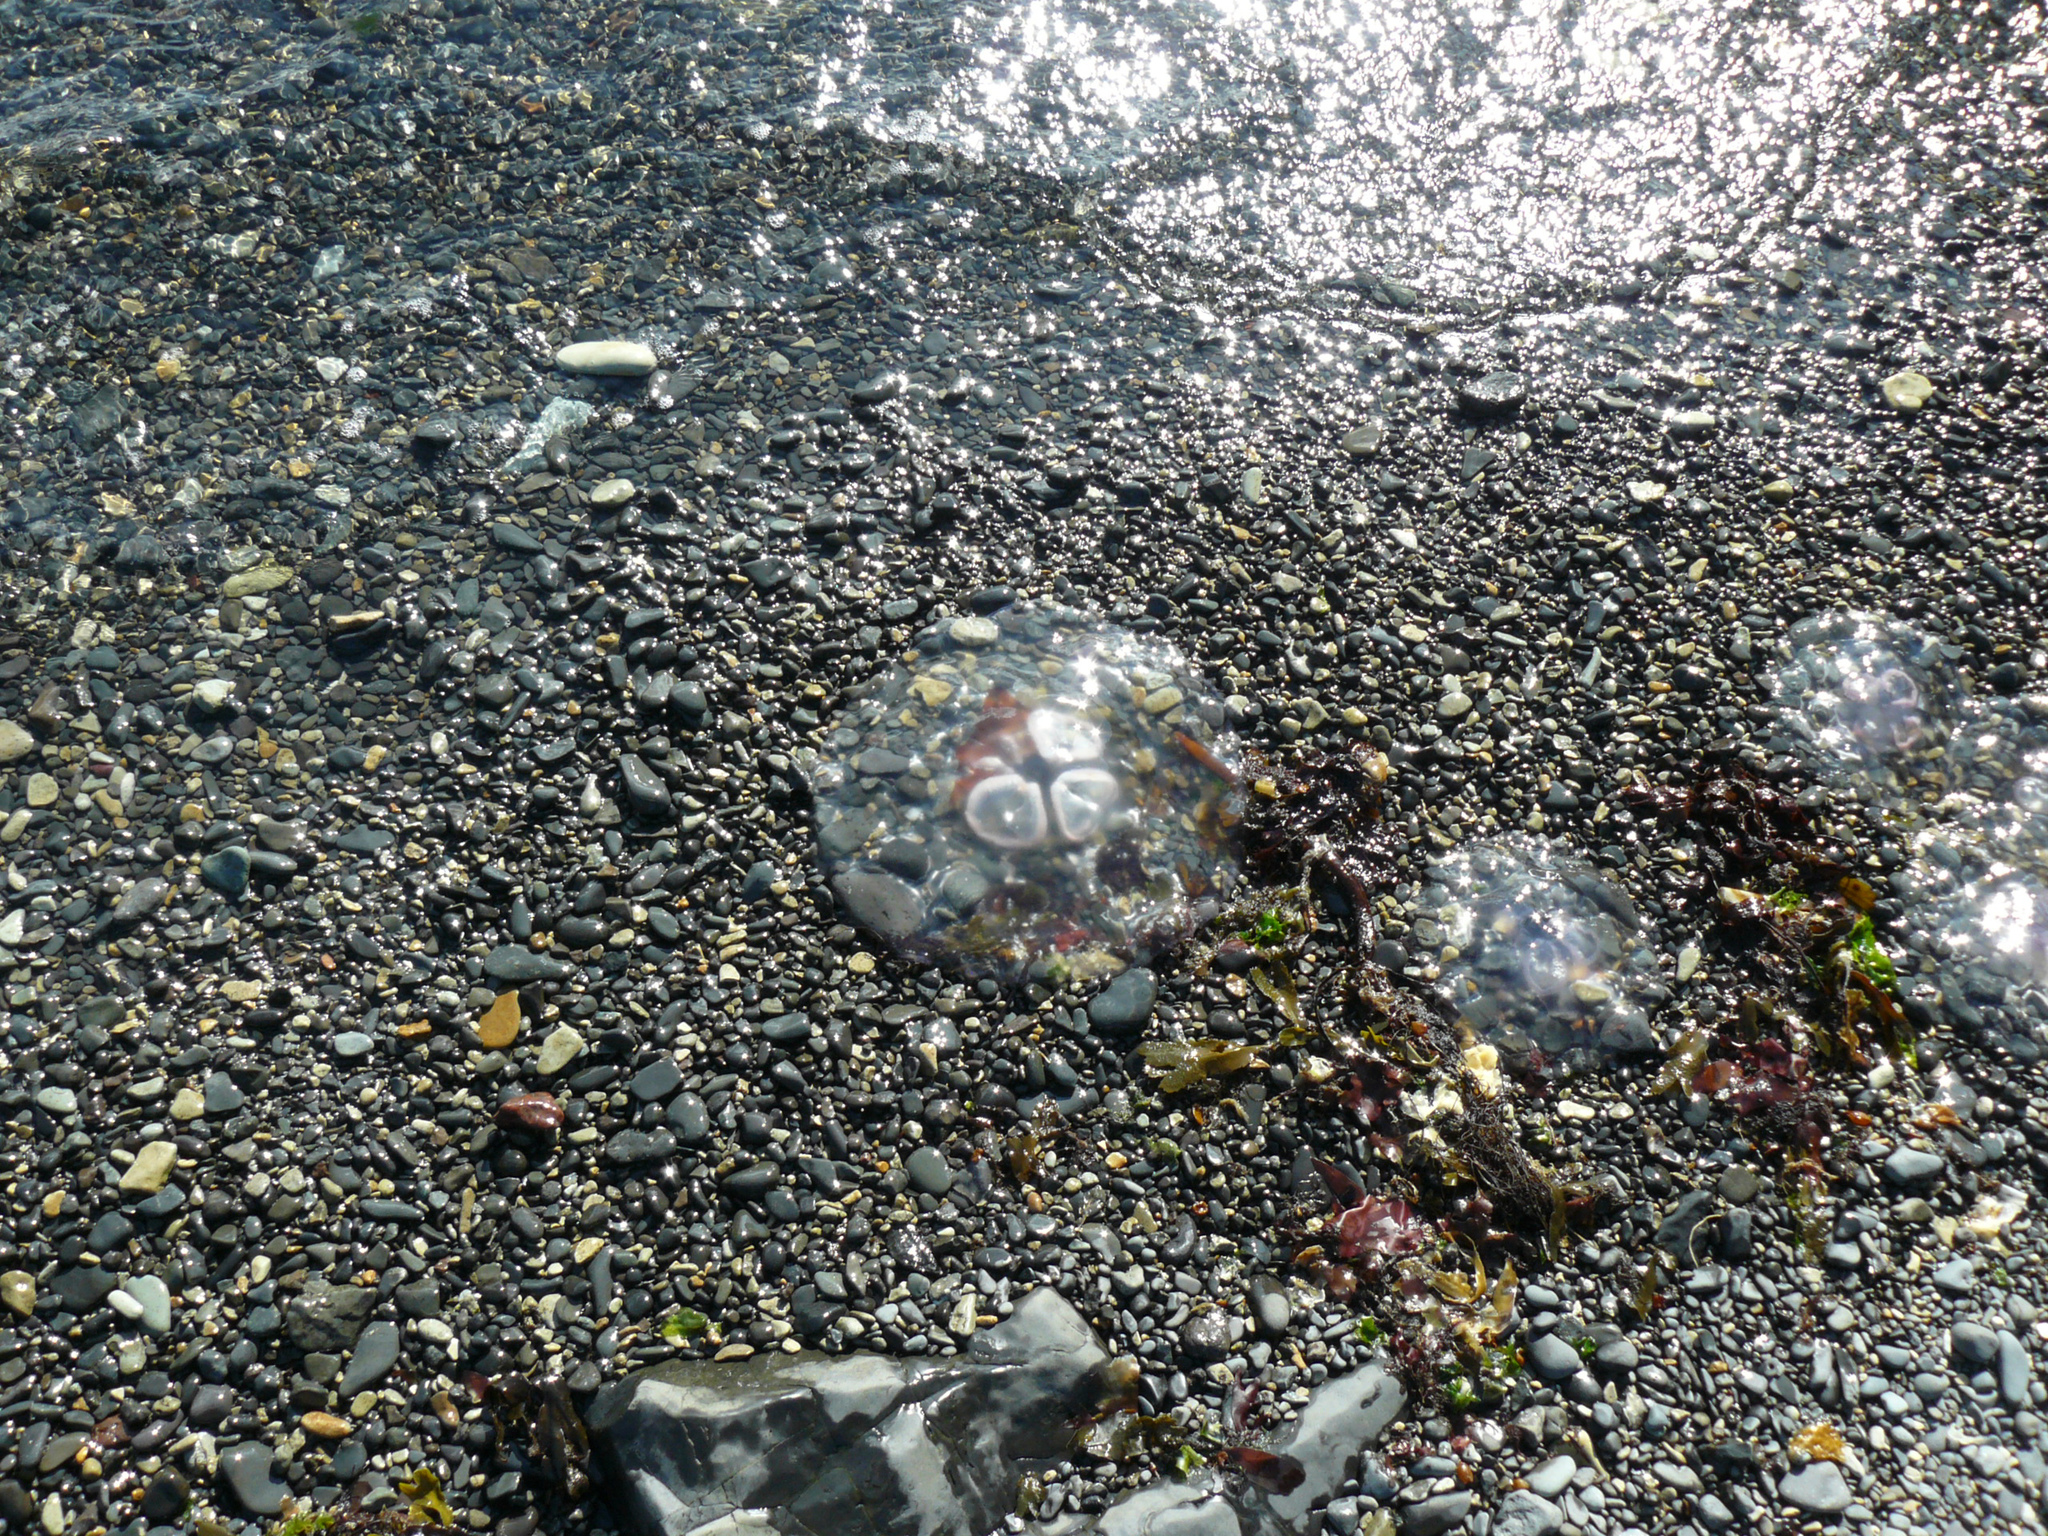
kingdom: Animalia
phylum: Cnidaria
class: Scyphozoa
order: Semaeostomeae
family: Ulmaridae
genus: Aurelia
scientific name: Aurelia aurita
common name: Moon jellyfish
